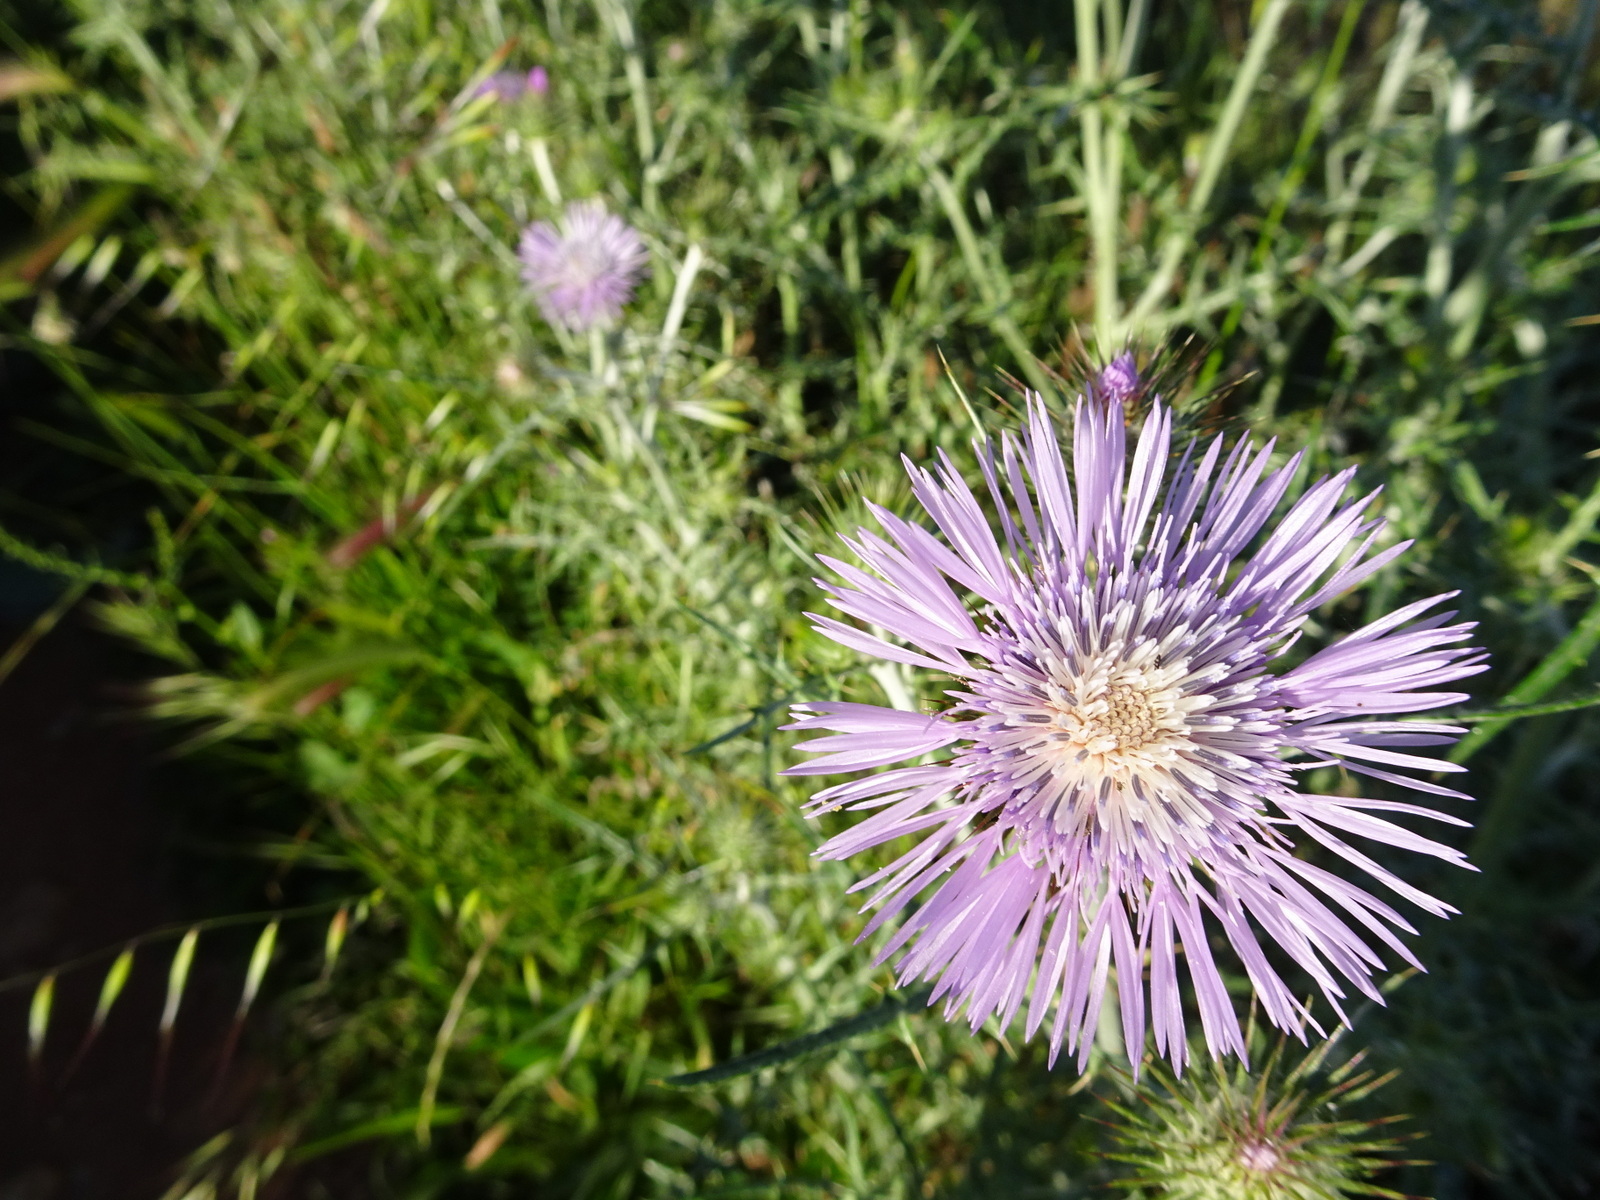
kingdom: Plantae
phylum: Tracheophyta
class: Magnoliopsida
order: Asterales
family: Asteraceae
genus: Galactites
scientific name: Galactites tomentosa
